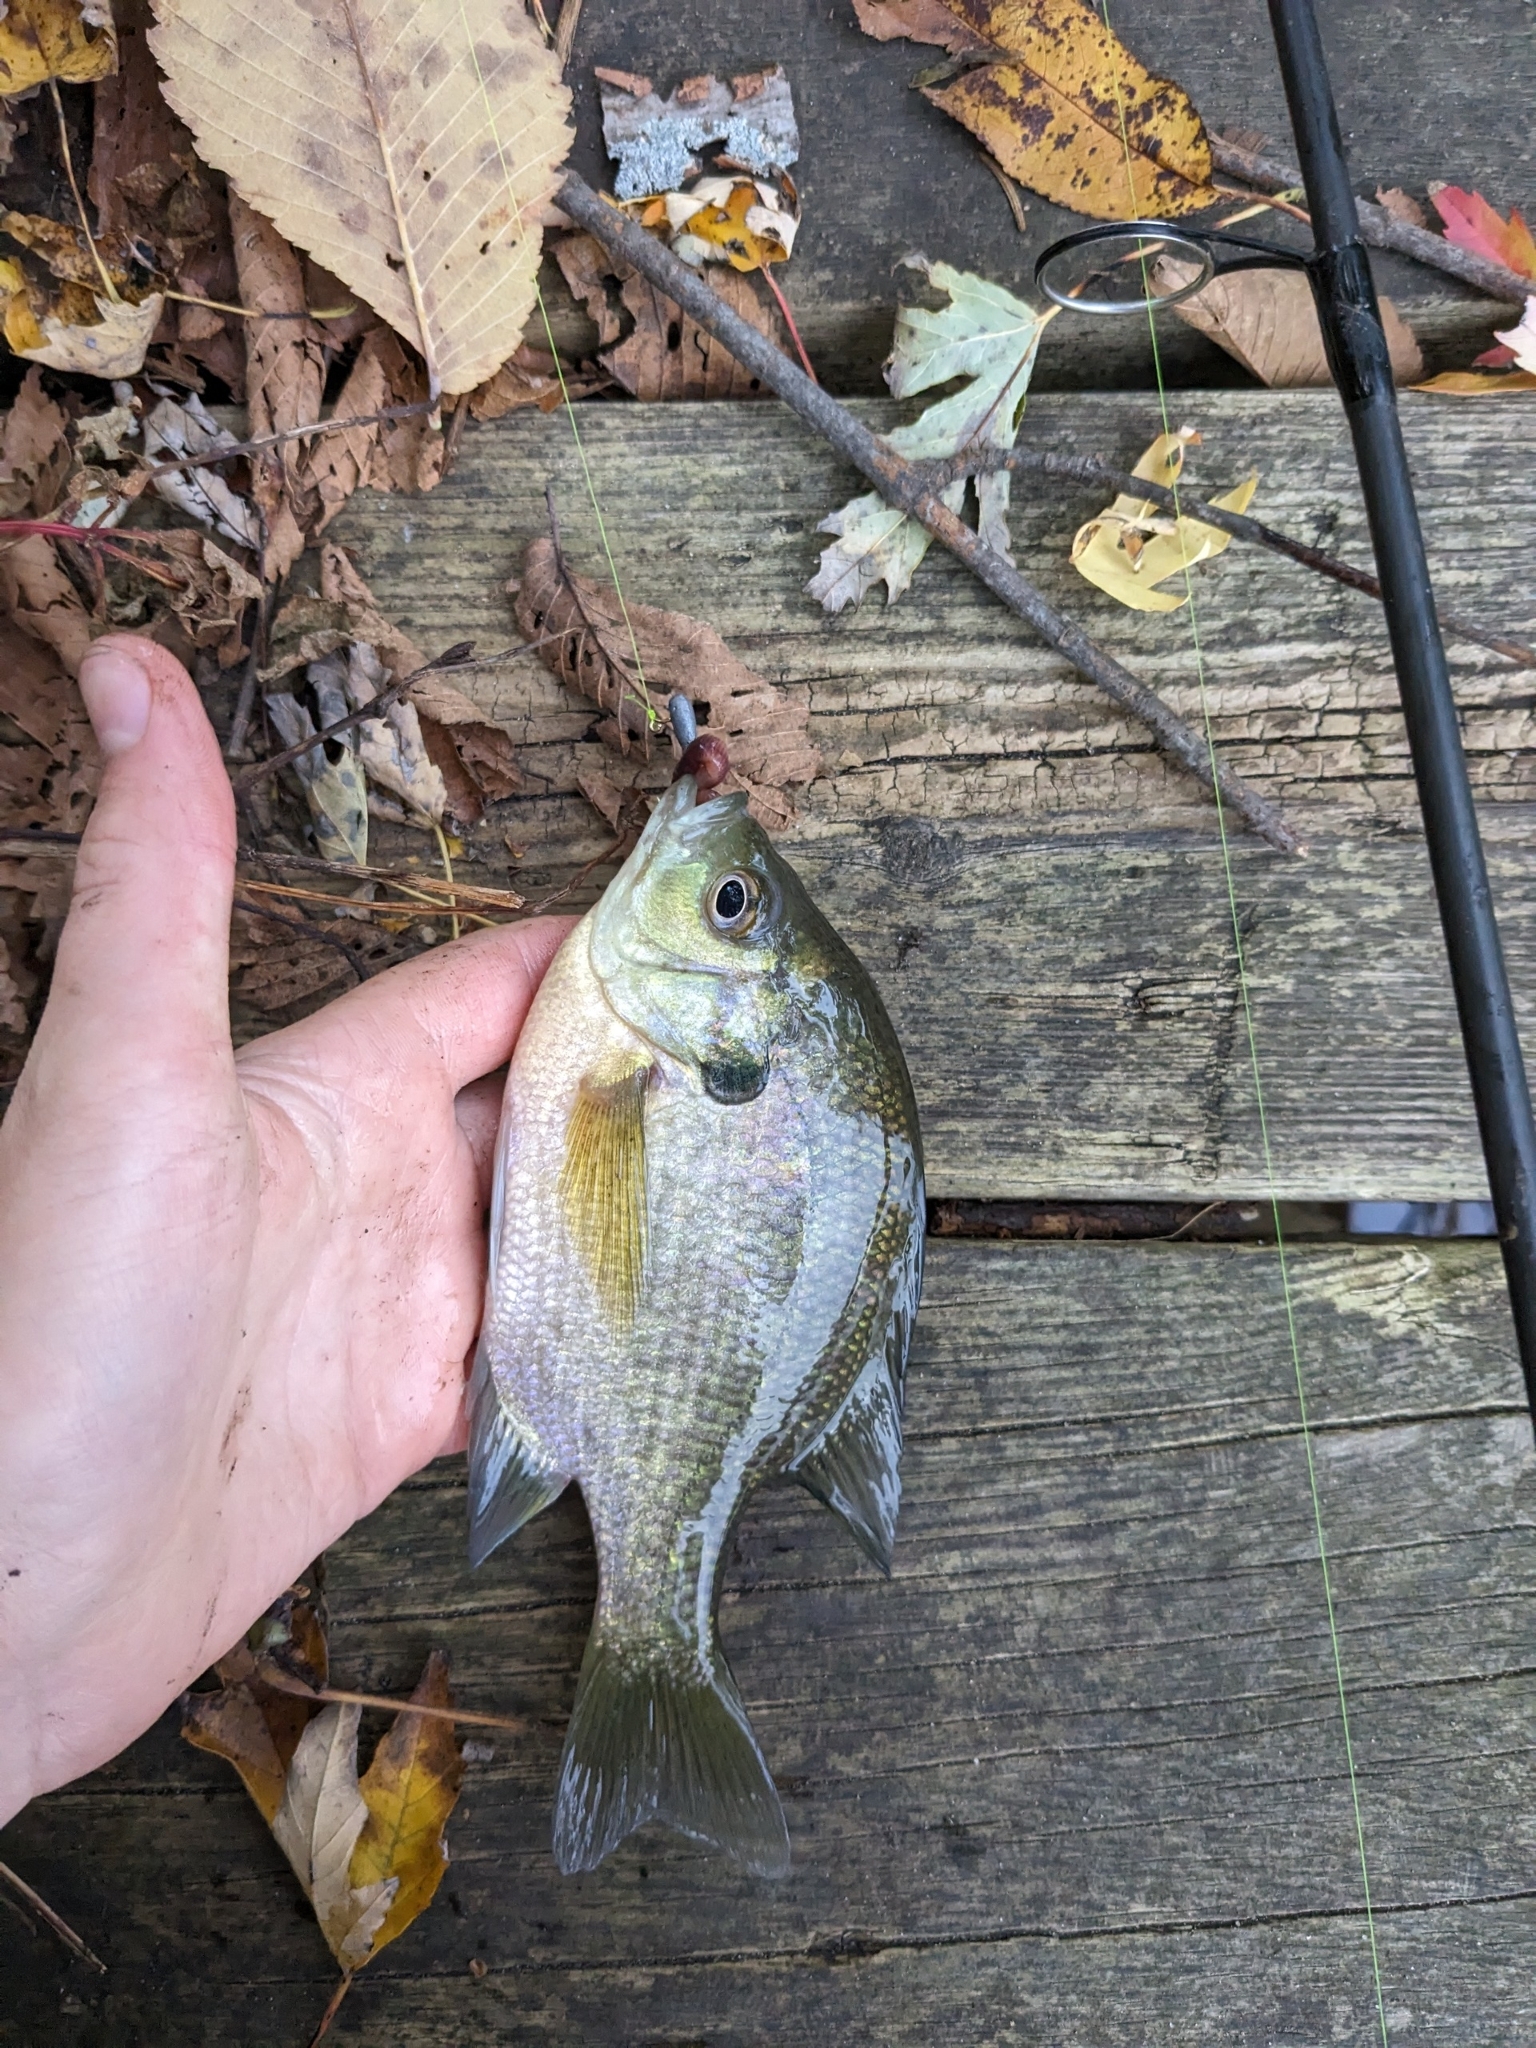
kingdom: Animalia
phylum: Chordata
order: Perciformes
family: Centrarchidae
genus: Lepomis
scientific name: Lepomis macrochirus
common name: Bluegill
